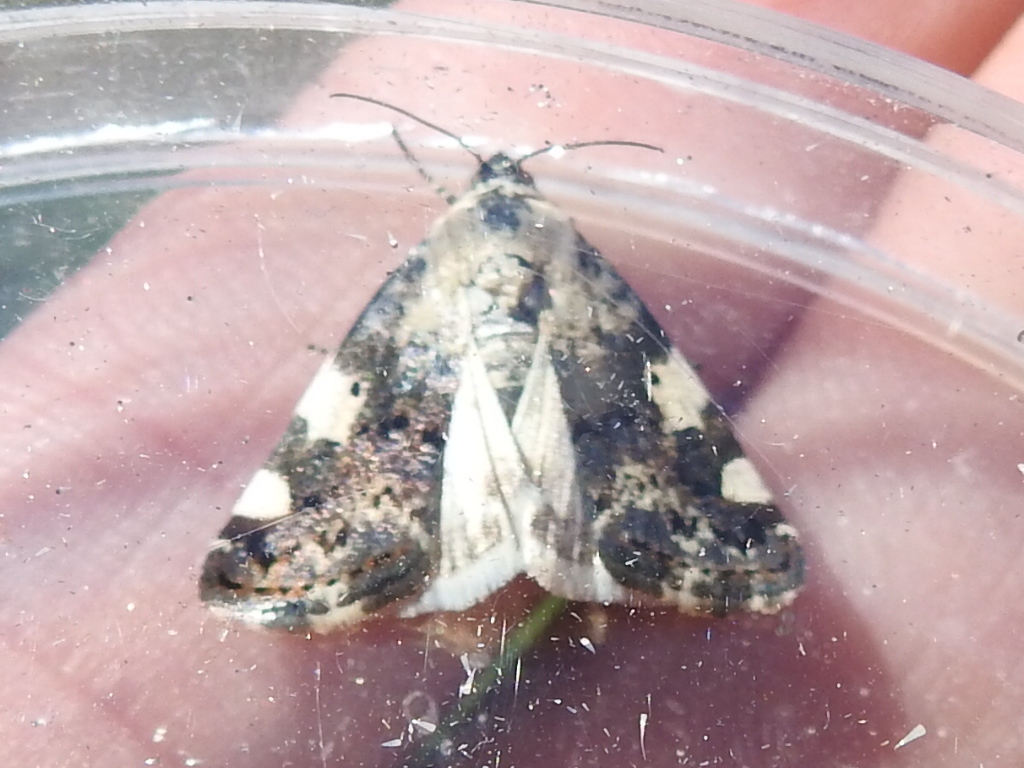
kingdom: Animalia
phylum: Arthropoda
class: Insecta
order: Lepidoptera
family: Noctuidae
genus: Acontia
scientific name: Acontia aprica
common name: Nun
